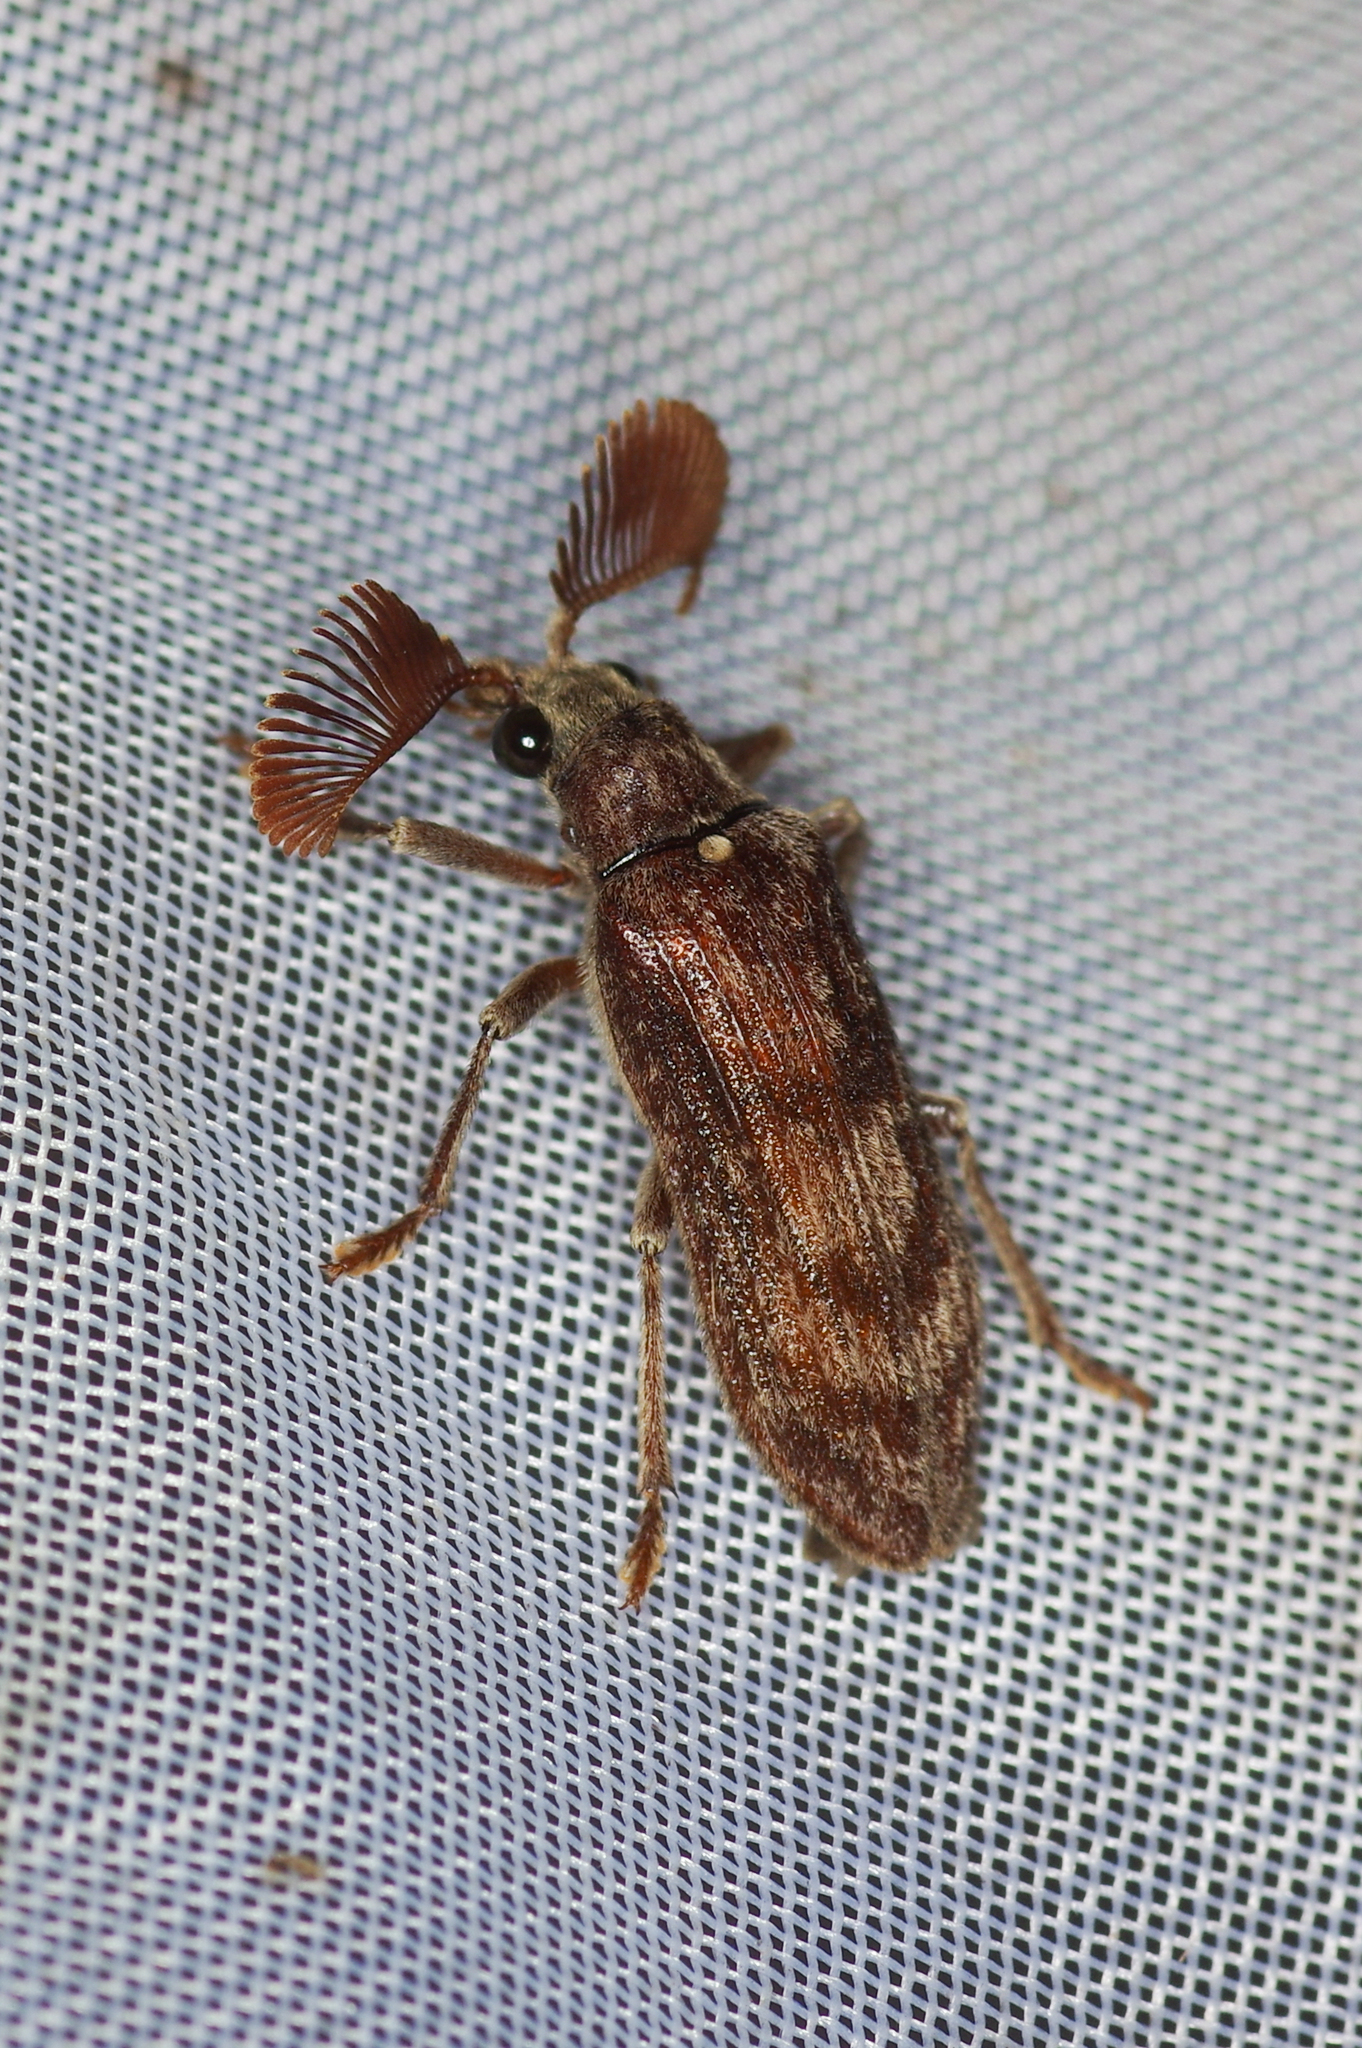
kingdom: Animalia
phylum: Arthropoda
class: Insecta
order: Coleoptera
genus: Oligorhipis
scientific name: Oligorhipis
